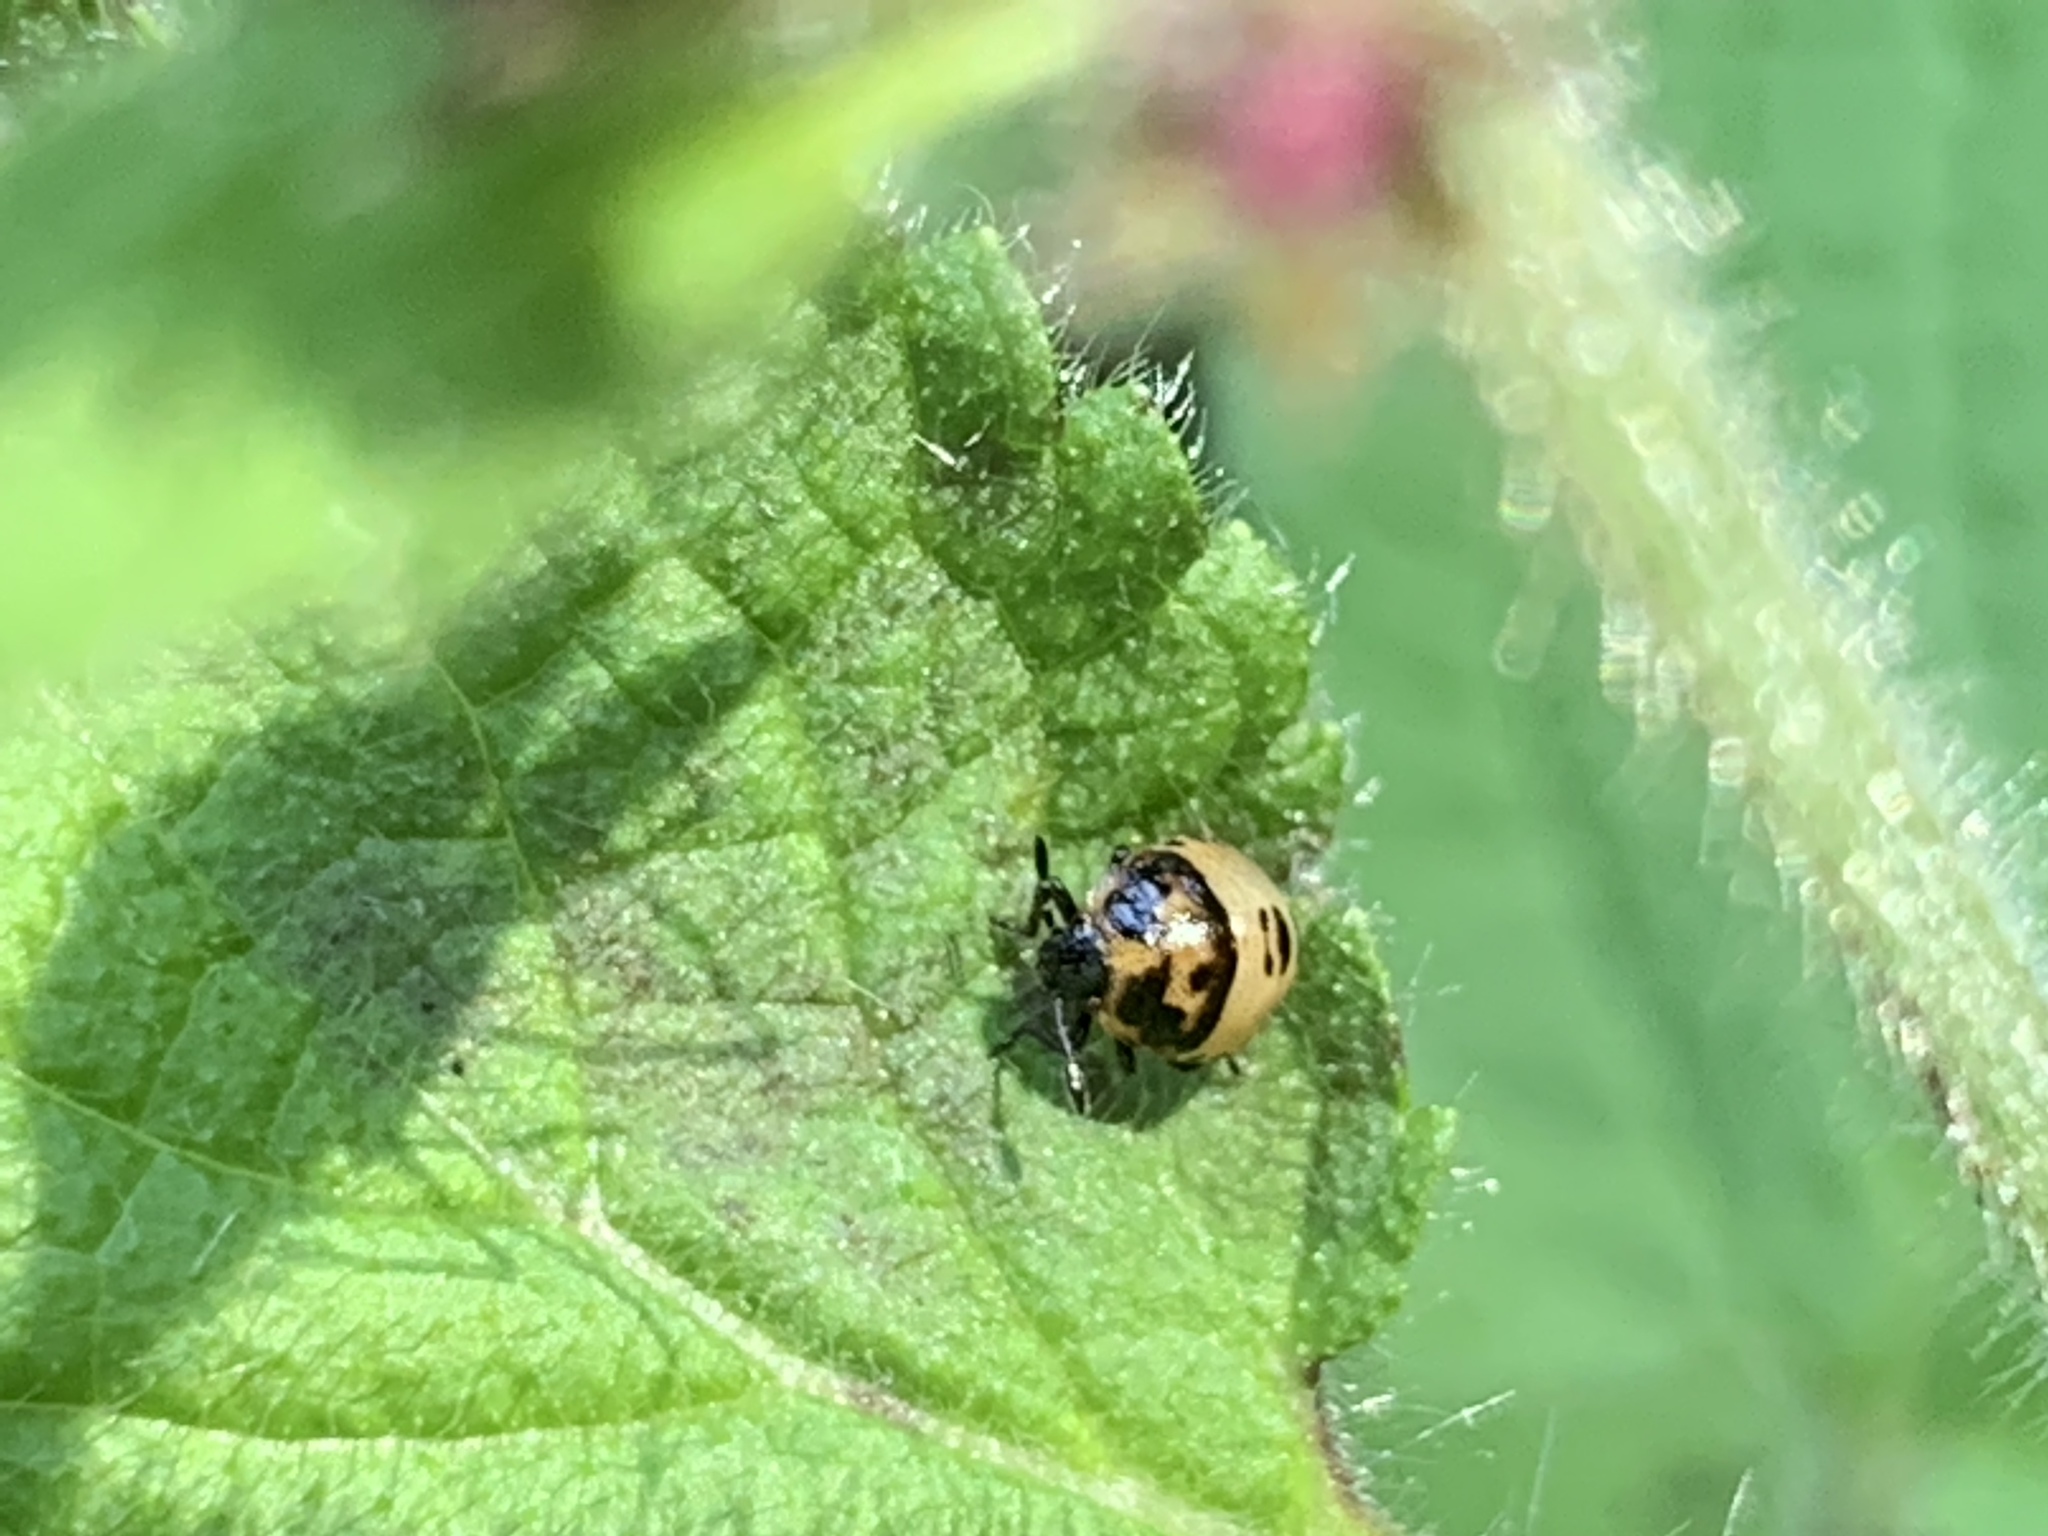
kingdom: Animalia
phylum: Arthropoda
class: Insecta
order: Hemiptera
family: Pentatomidae
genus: Cosmopepla
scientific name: Cosmopepla lintneriana
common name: Twice-stabbed stink bug
